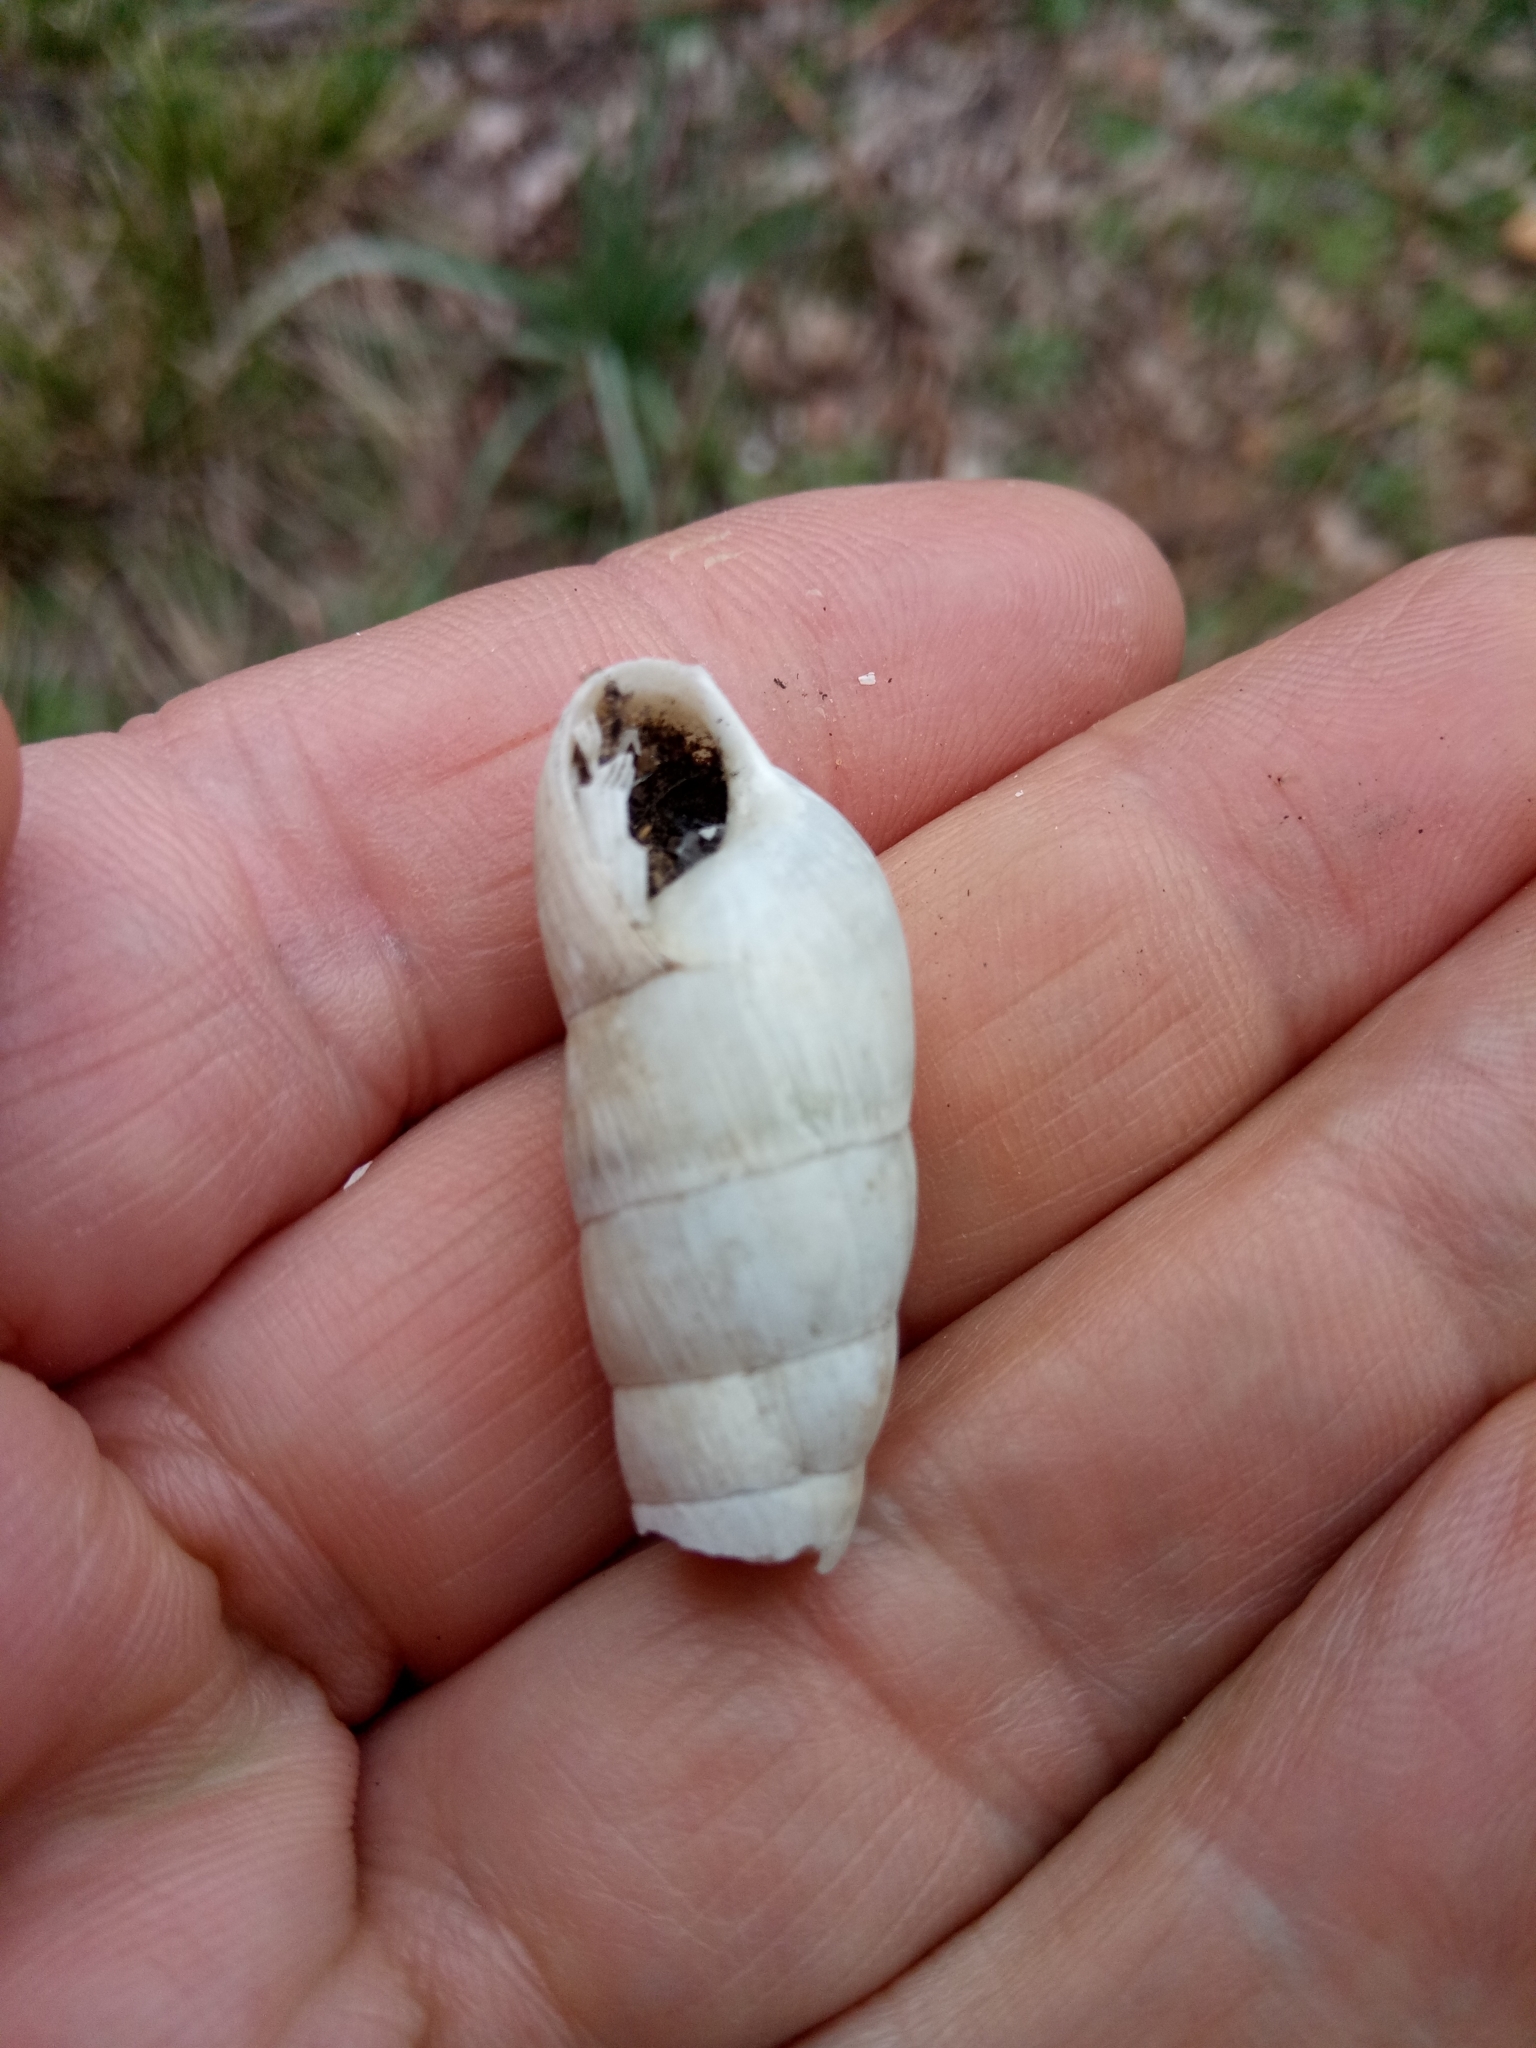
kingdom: Animalia
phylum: Mollusca
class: Gastropoda
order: Stylommatophora
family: Achatinidae
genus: Rumina
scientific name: Rumina decollata
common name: Decollate snail
